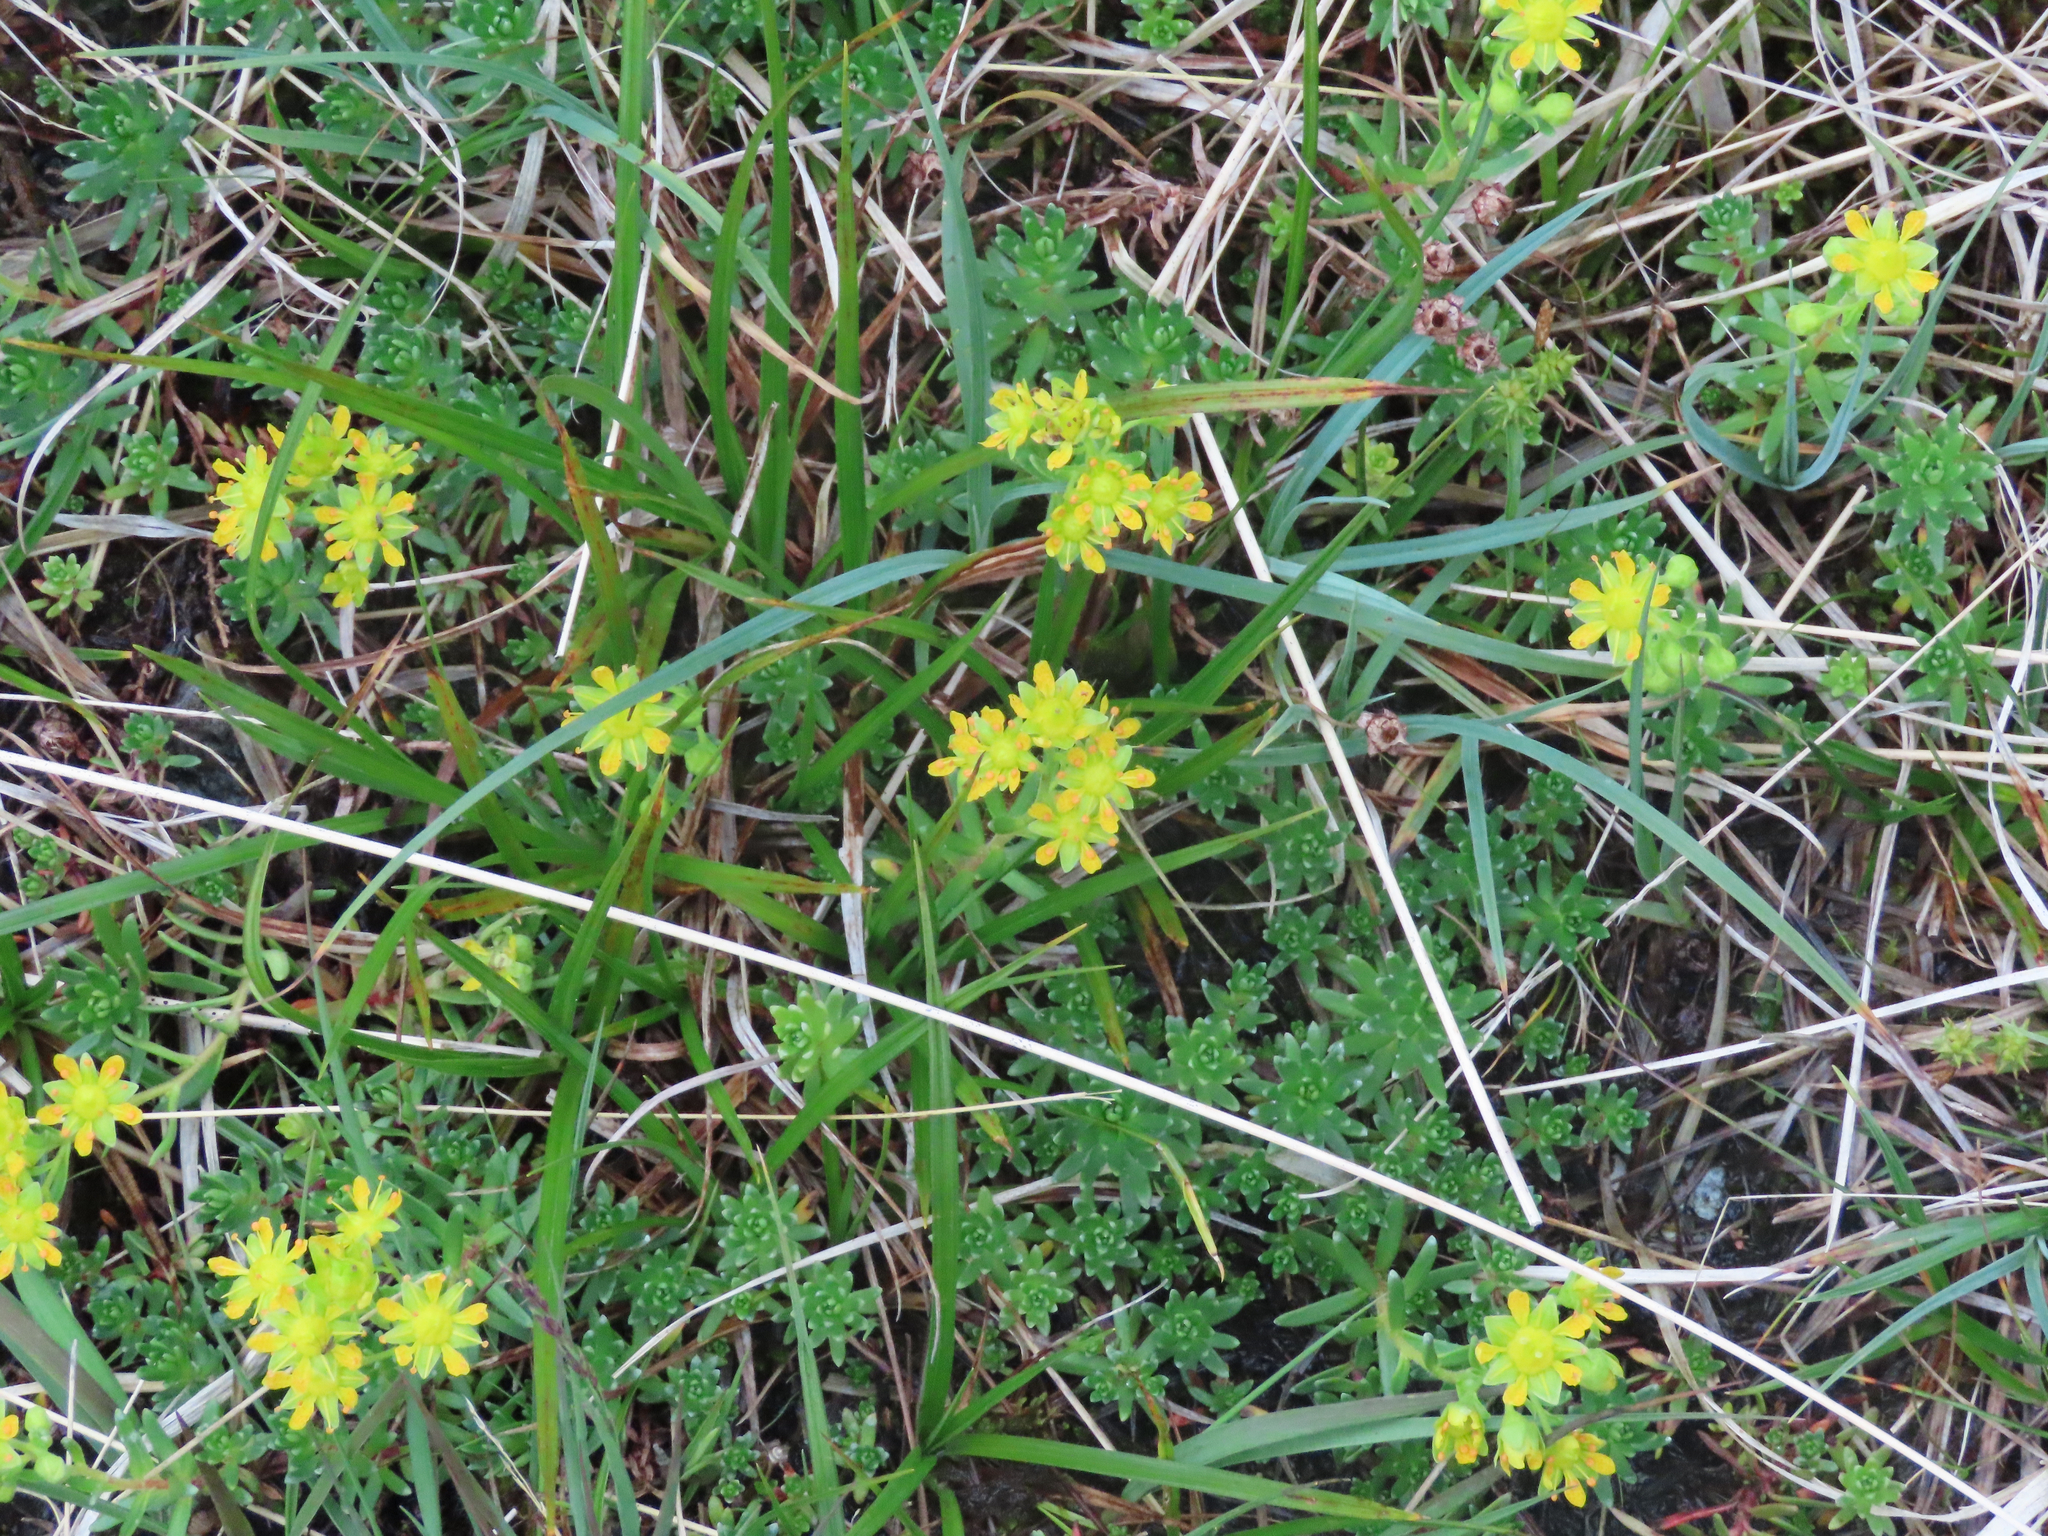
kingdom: Plantae
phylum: Tracheophyta
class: Magnoliopsida
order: Saxifragales
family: Saxifragaceae
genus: Saxifraga
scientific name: Saxifraga aizoides
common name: Yellow mountain saxifrage
